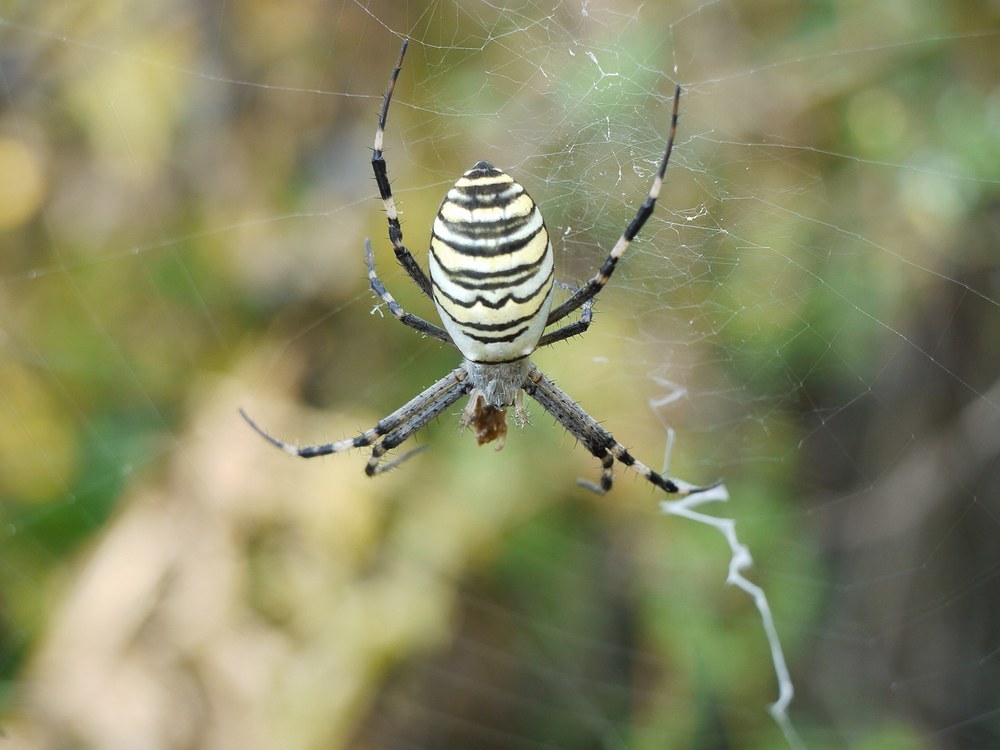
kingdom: Animalia
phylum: Arthropoda
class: Arachnida
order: Araneae
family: Araneidae
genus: Argiope
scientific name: Argiope bruennichi
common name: Wasp spider
